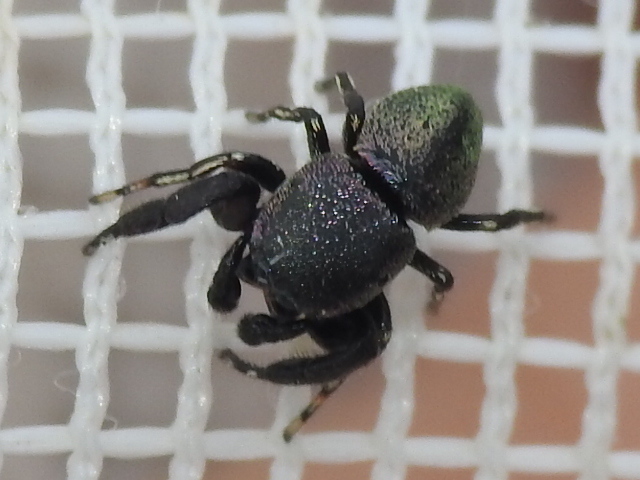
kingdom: Animalia
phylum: Arthropoda
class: Arachnida
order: Araneae
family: Salticidae
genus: Sassacus
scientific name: Sassacus cyaneus
